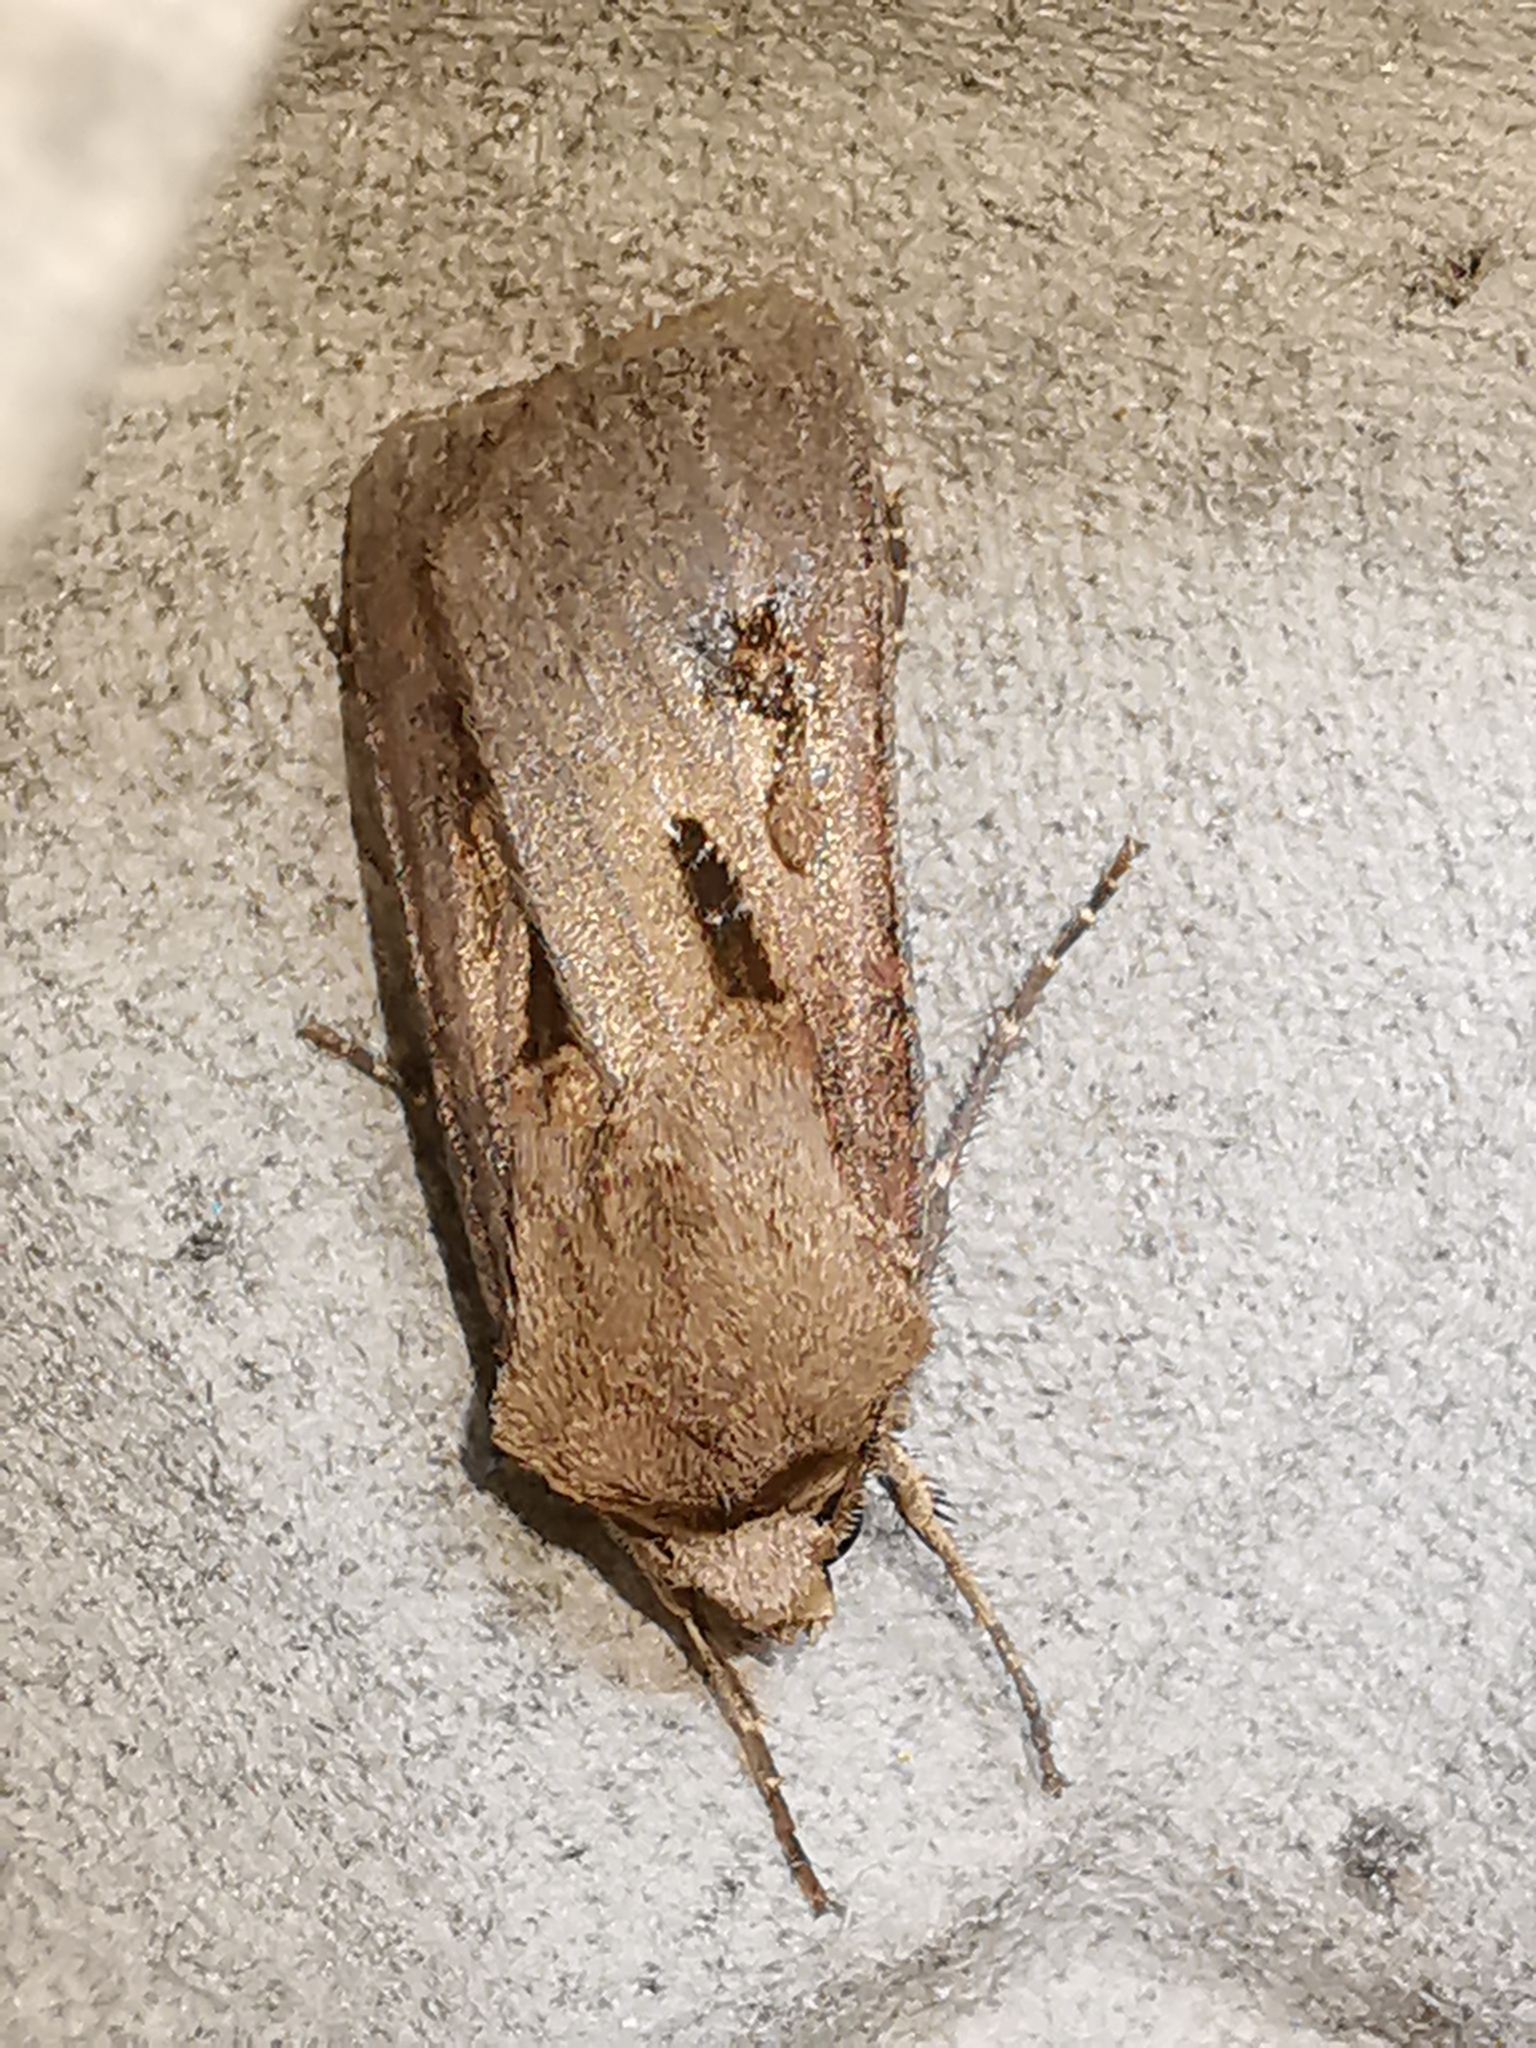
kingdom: Animalia
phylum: Arthropoda
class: Insecta
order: Lepidoptera
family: Noctuidae
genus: Agrotis
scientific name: Agrotis exclamationis
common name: Heart and dart
